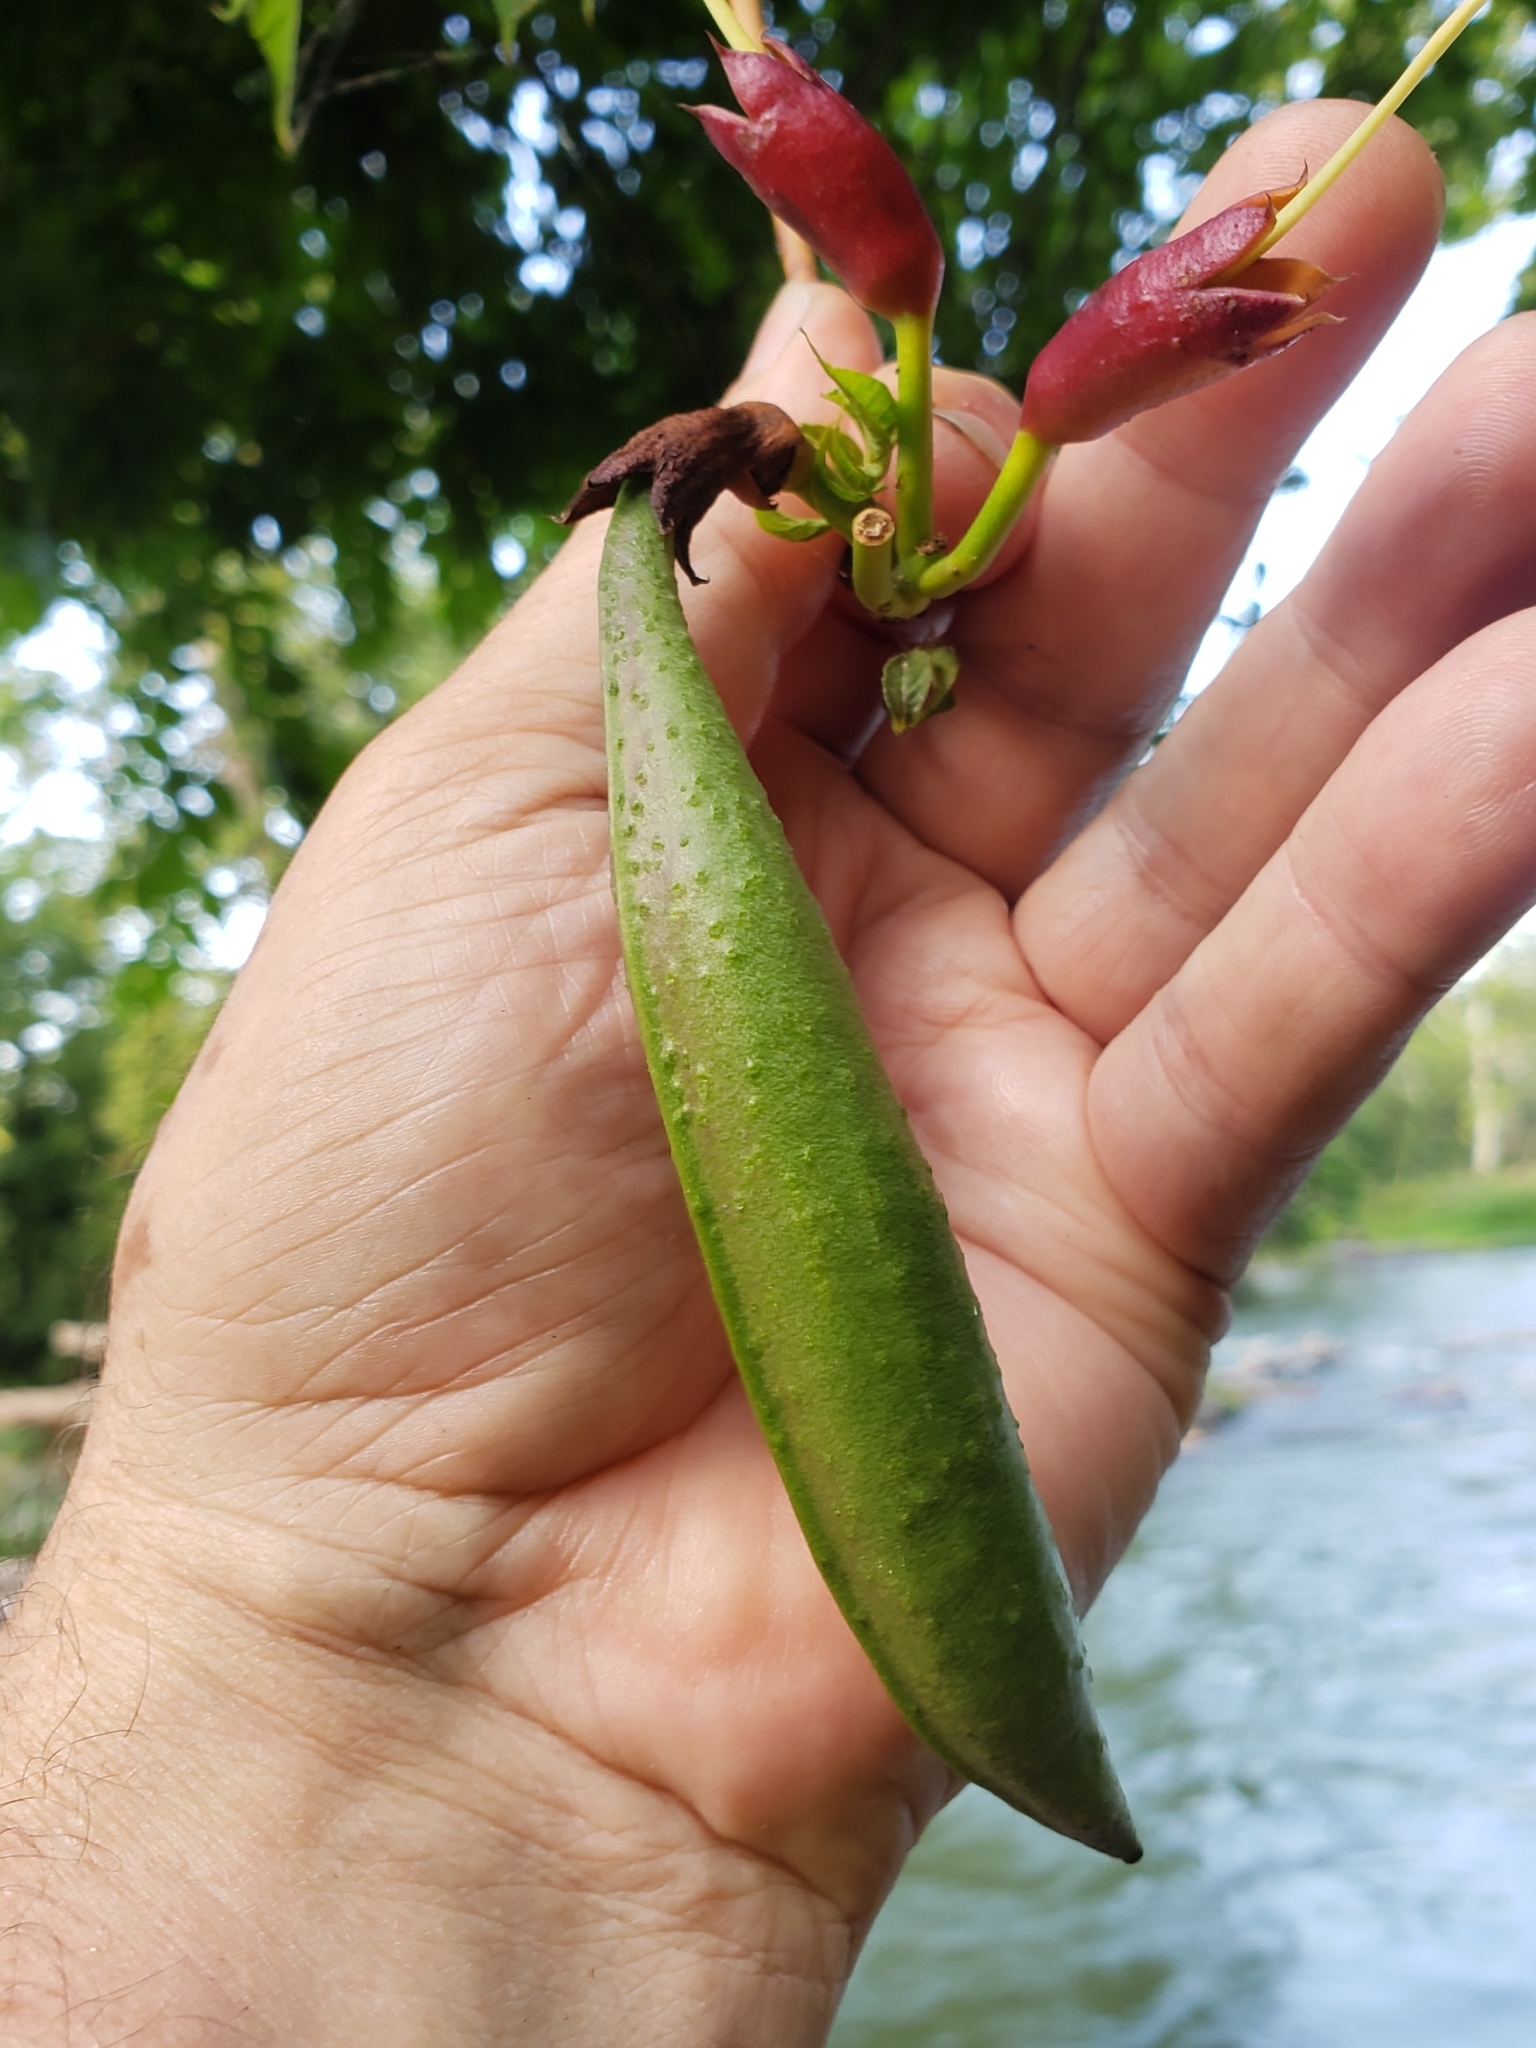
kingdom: Plantae
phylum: Tracheophyta
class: Magnoliopsida
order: Lamiales
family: Bignoniaceae
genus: Campsis
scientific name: Campsis radicans
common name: Trumpet-creeper
